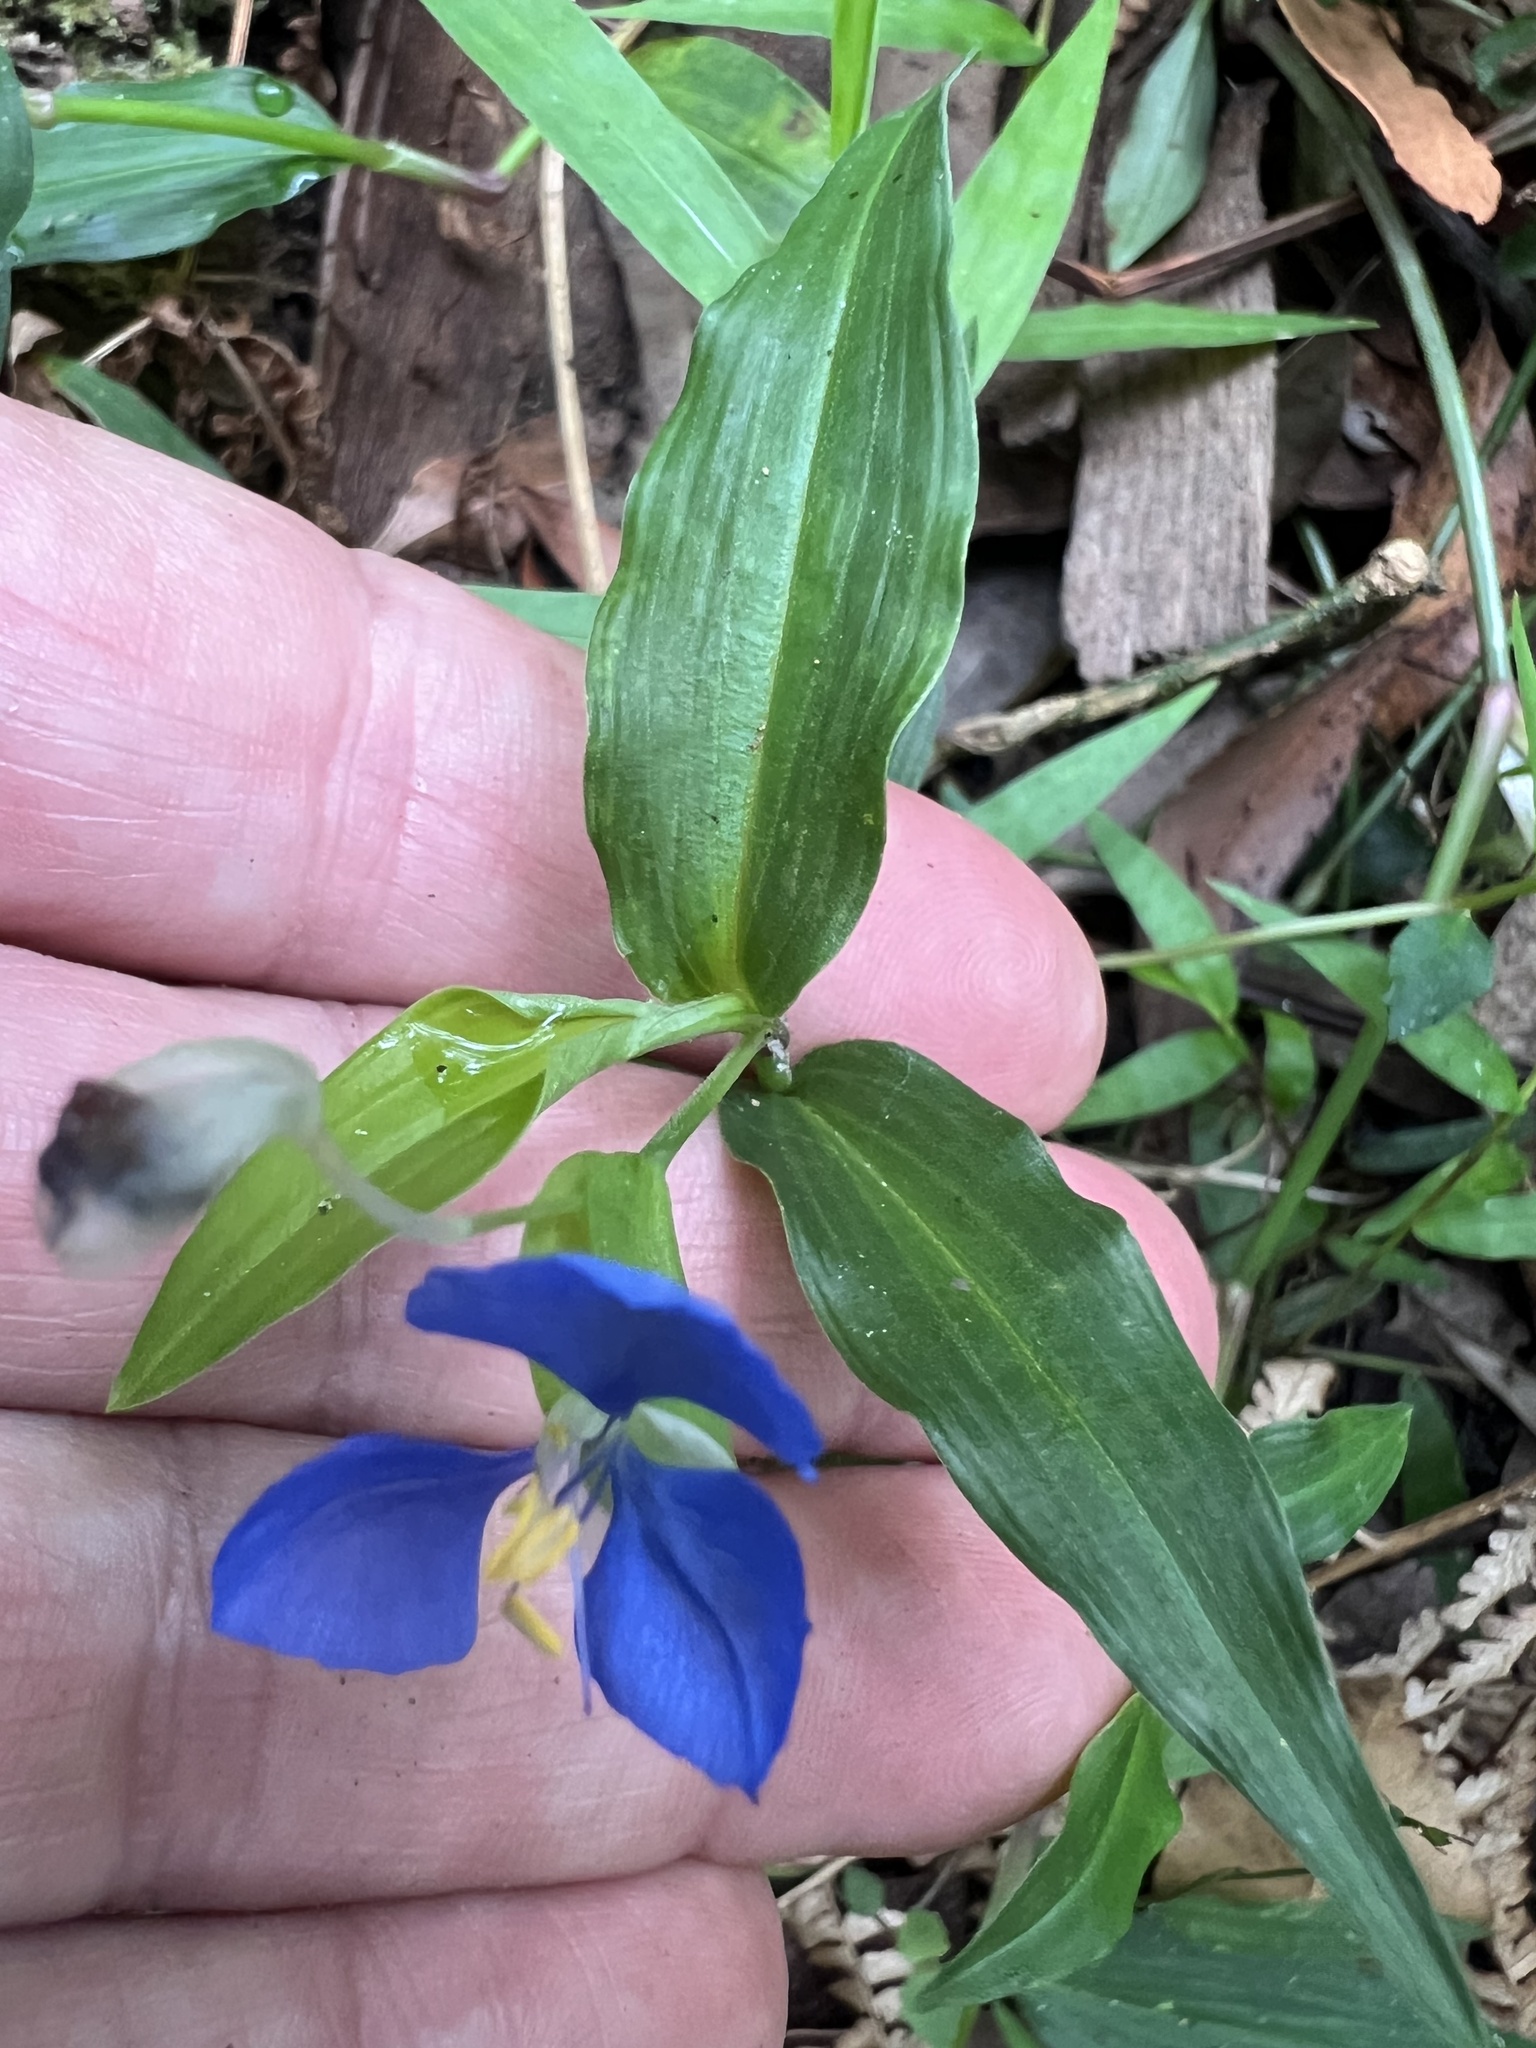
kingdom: Plantae
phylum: Tracheophyta
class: Liliopsida
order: Commelinales
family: Commelinaceae
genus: Commelina
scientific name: Commelina cyanea
